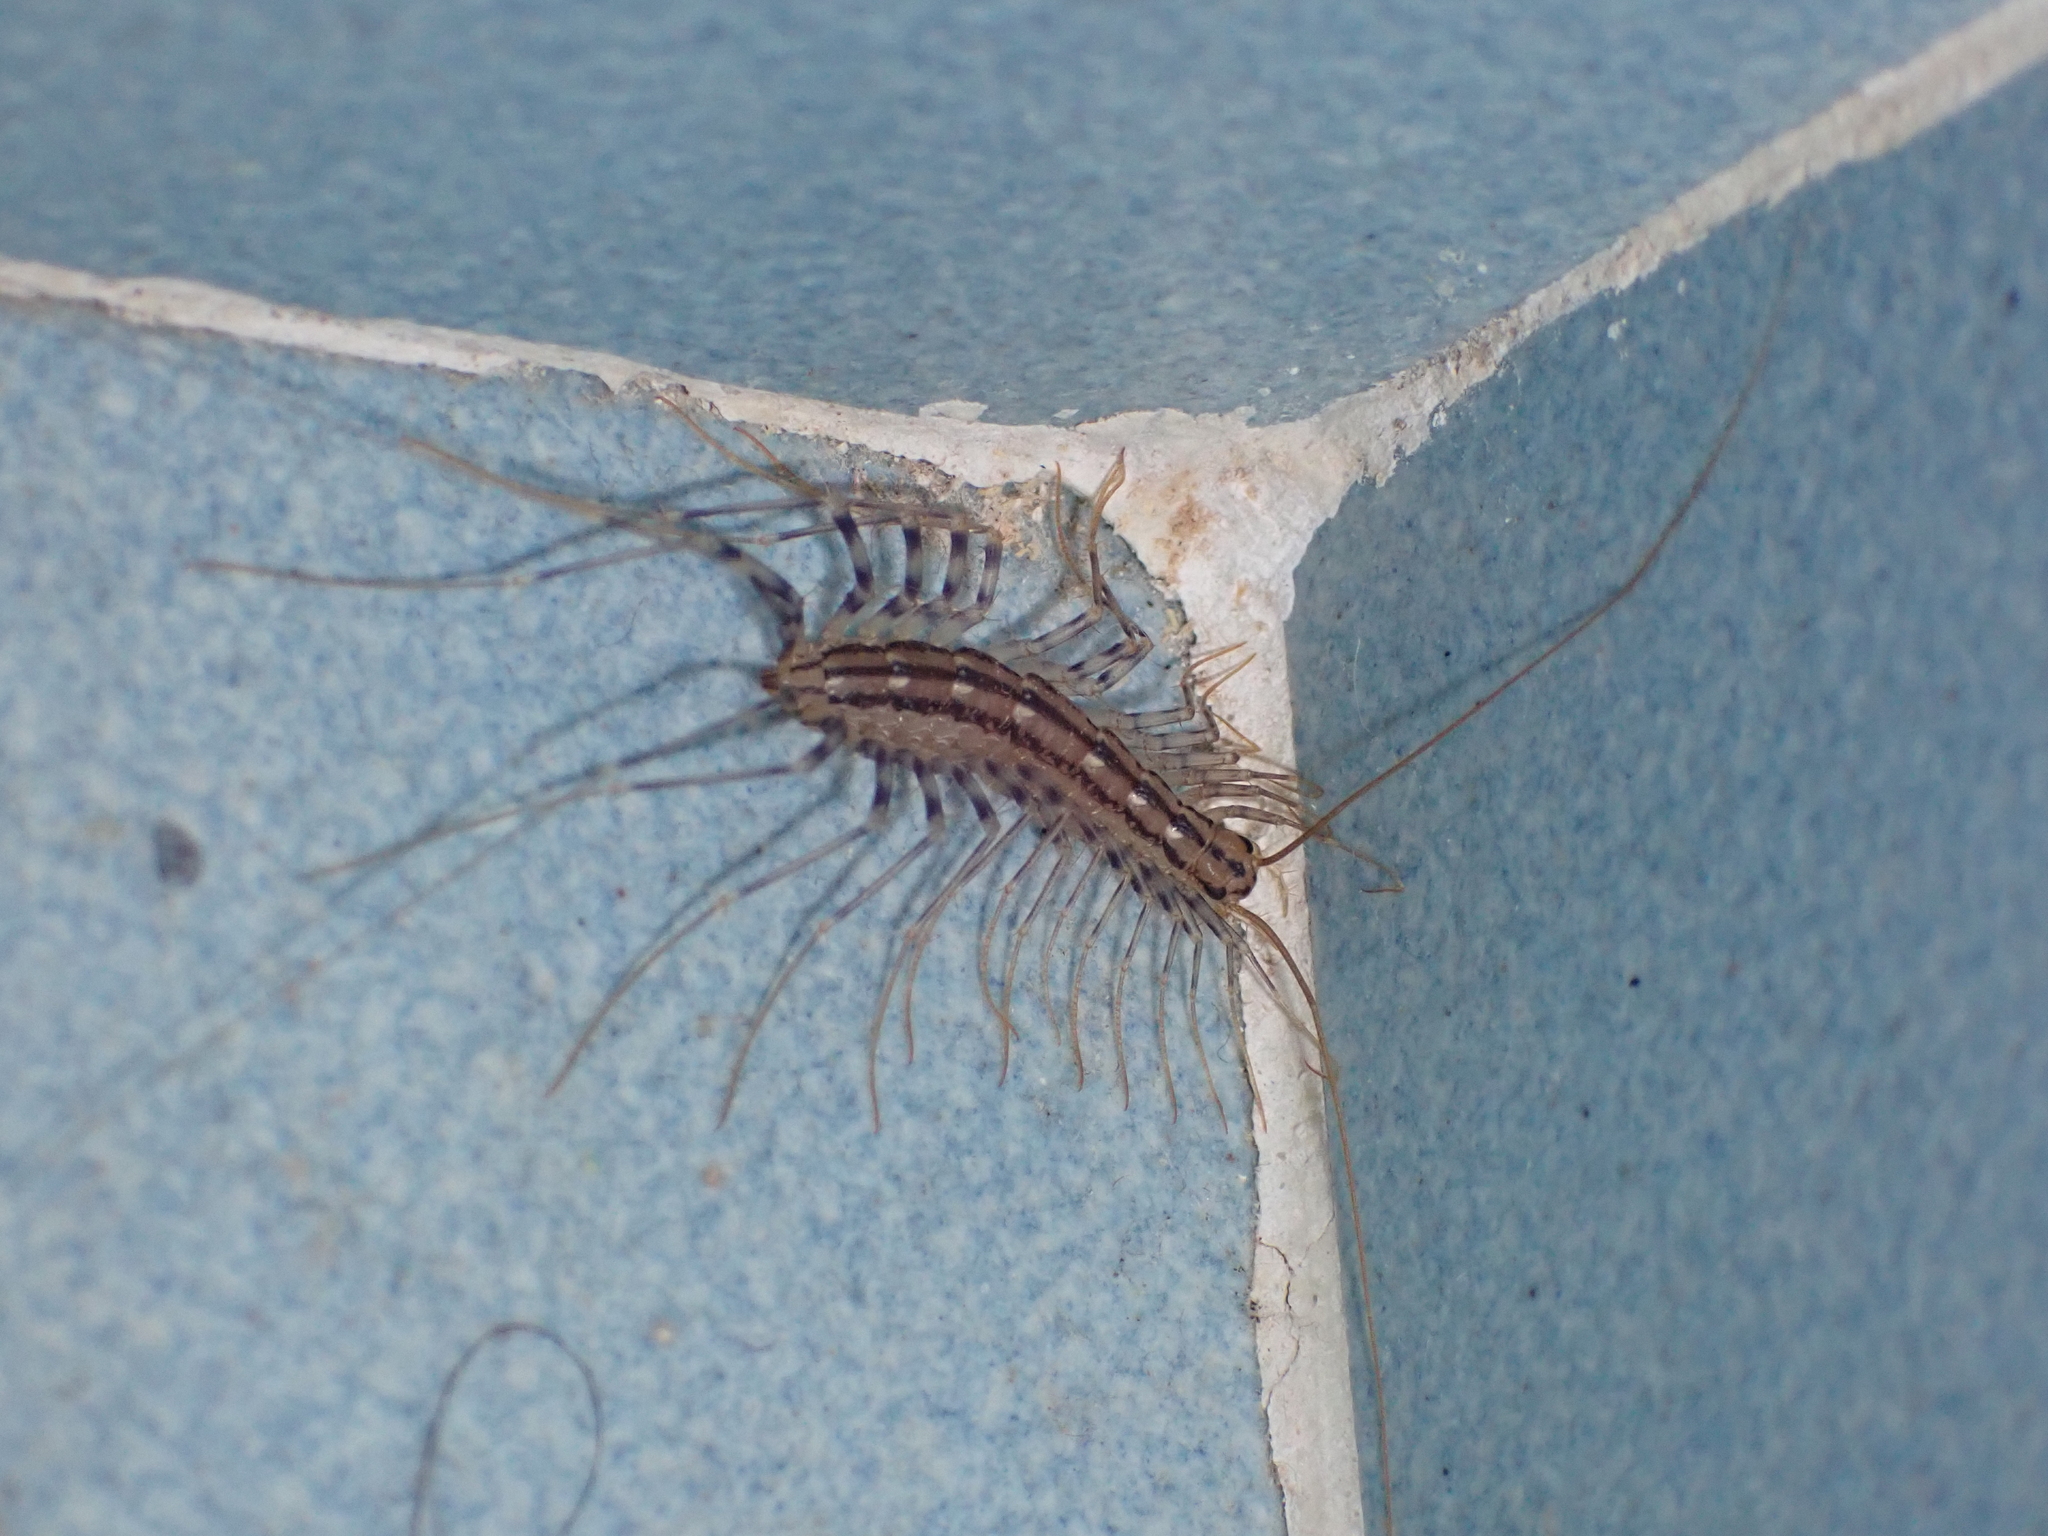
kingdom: Animalia
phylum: Arthropoda
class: Chilopoda
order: Scutigeromorpha
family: Scutigeridae
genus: Scutigera
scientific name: Scutigera coleoptrata
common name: House centipede
